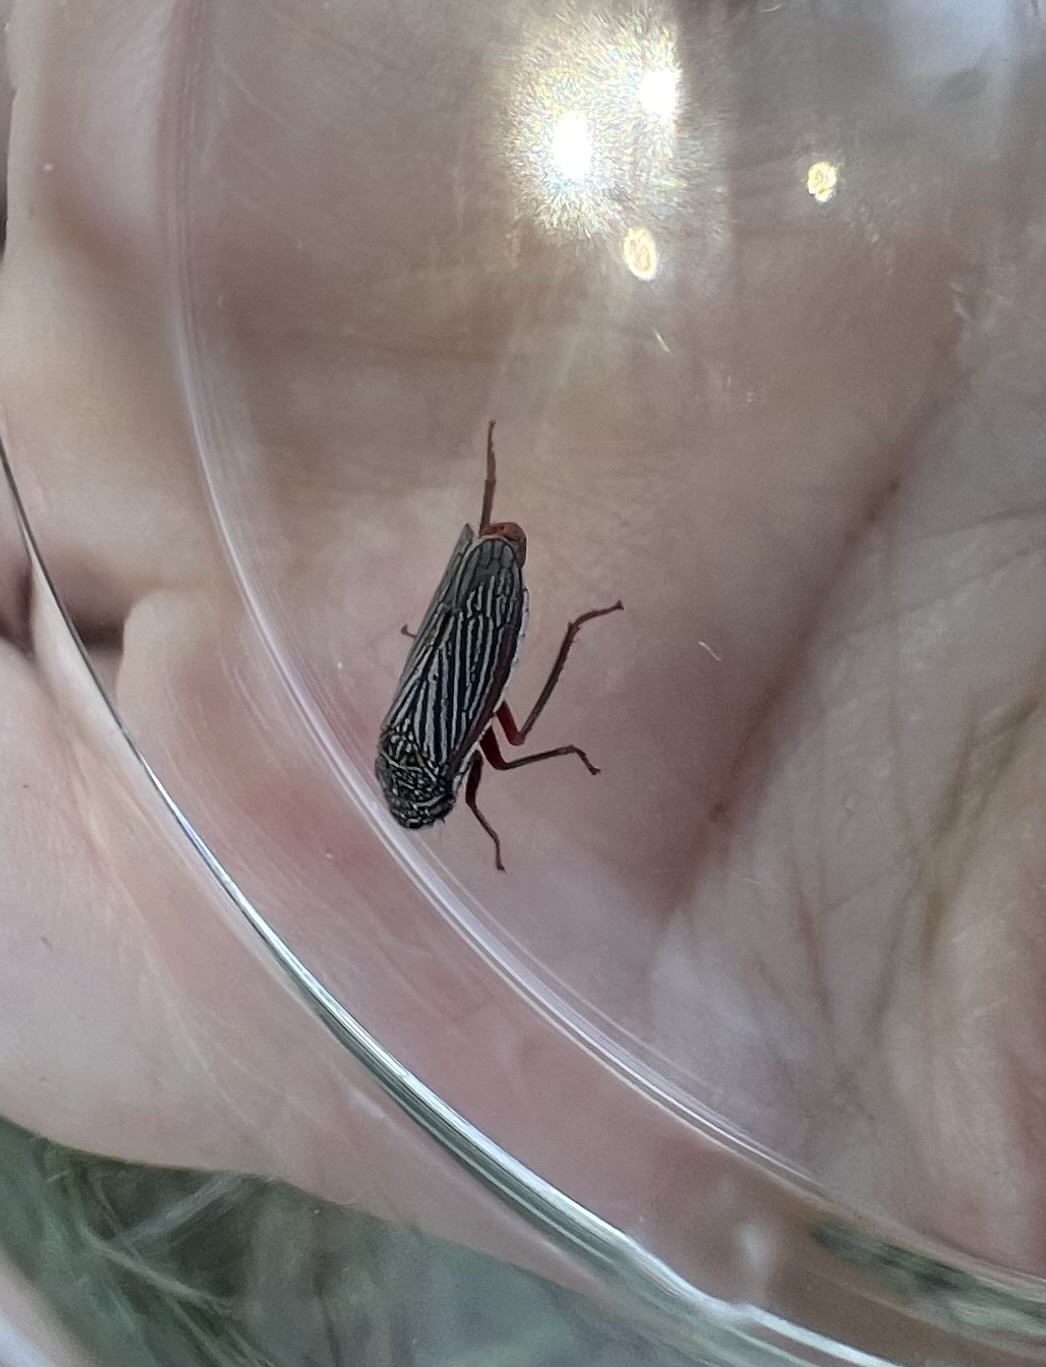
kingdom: Animalia
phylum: Arthropoda
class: Insecta
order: Hemiptera
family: Cicadellidae
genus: Cuerna
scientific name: Cuerna costalis
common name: Lateral-lined sharpshooter
